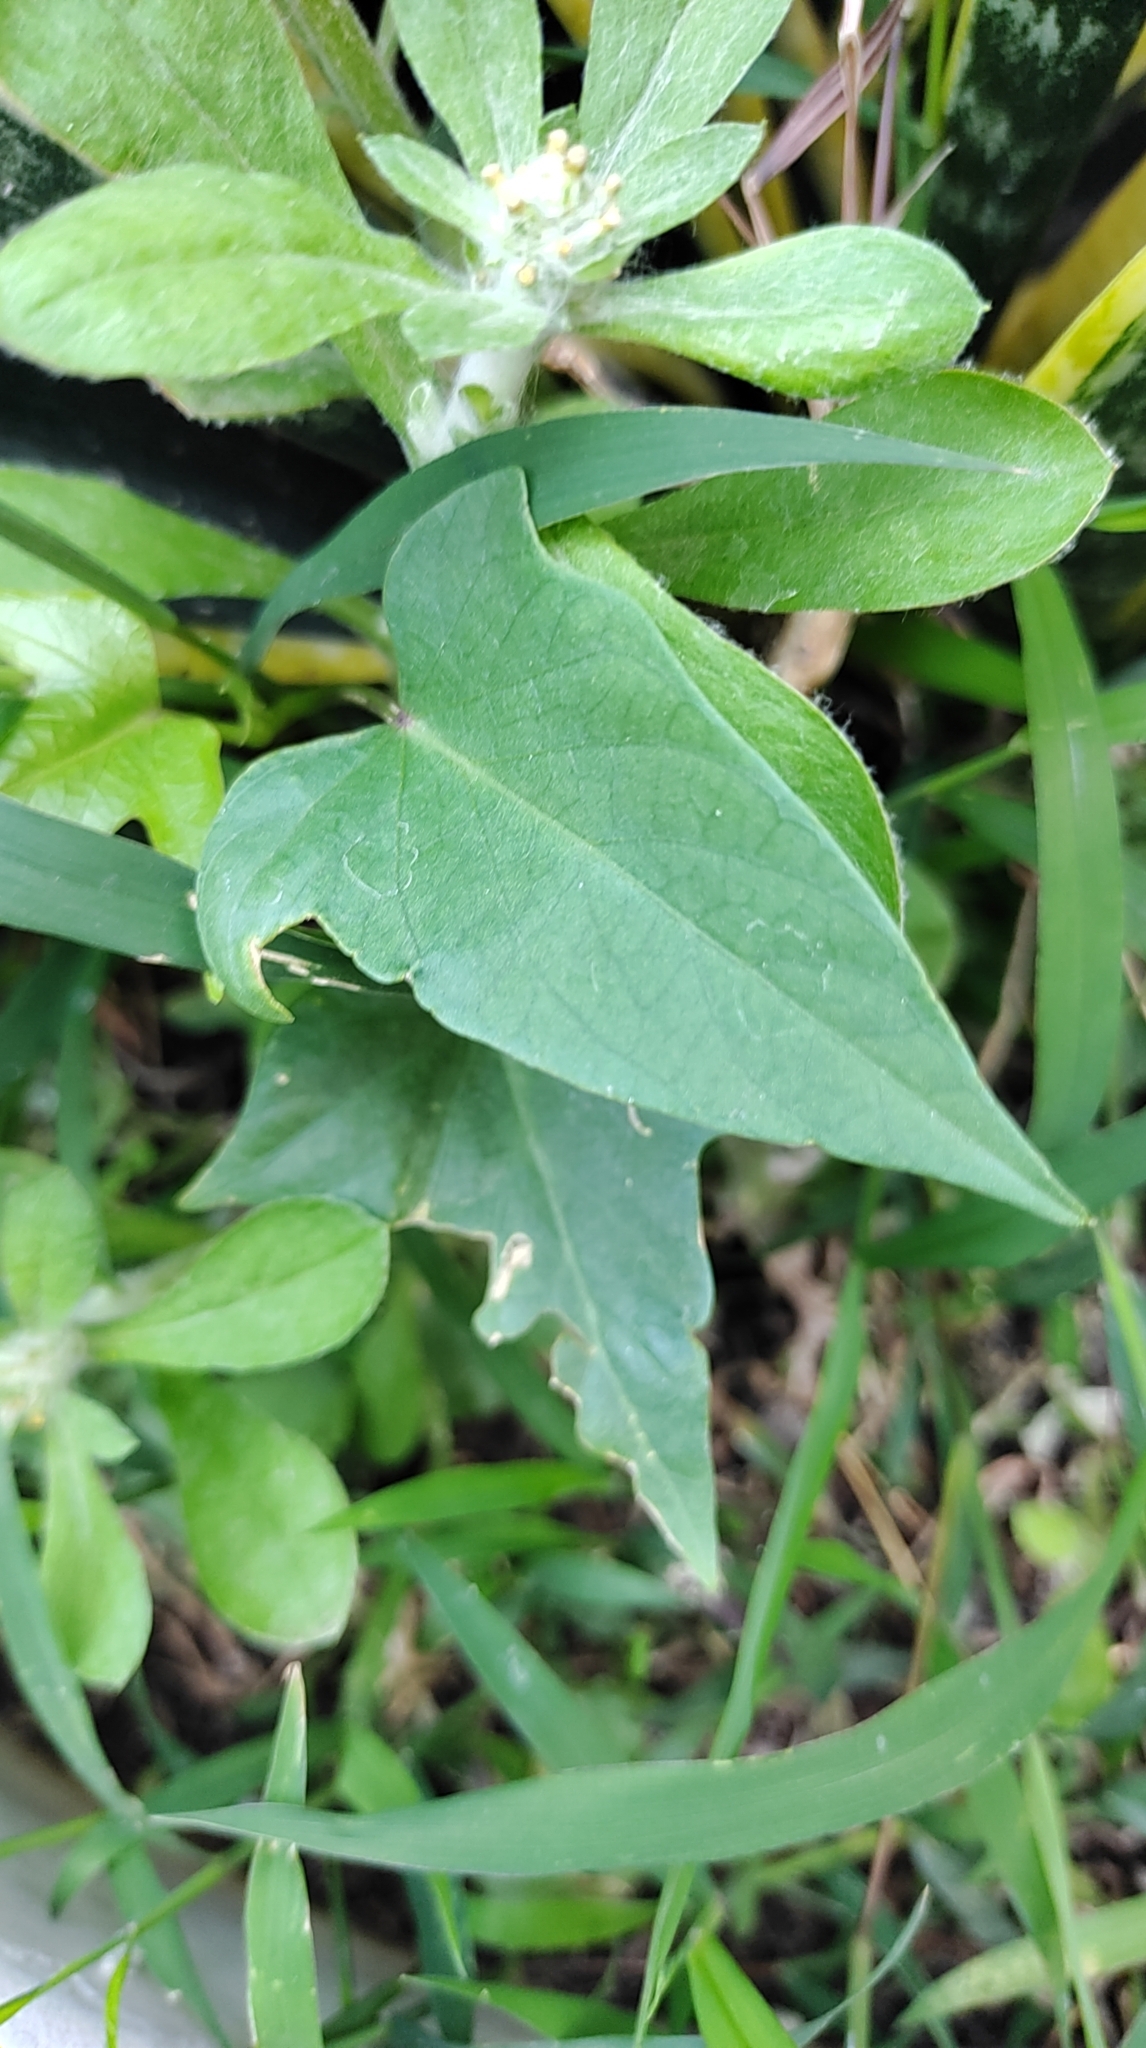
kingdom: Plantae
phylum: Tracheophyta
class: Magnoliopsida
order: Solanales
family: Convolvulaceae
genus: Ipomoea
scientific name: Ipomoea batatas
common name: Sweet-potato
